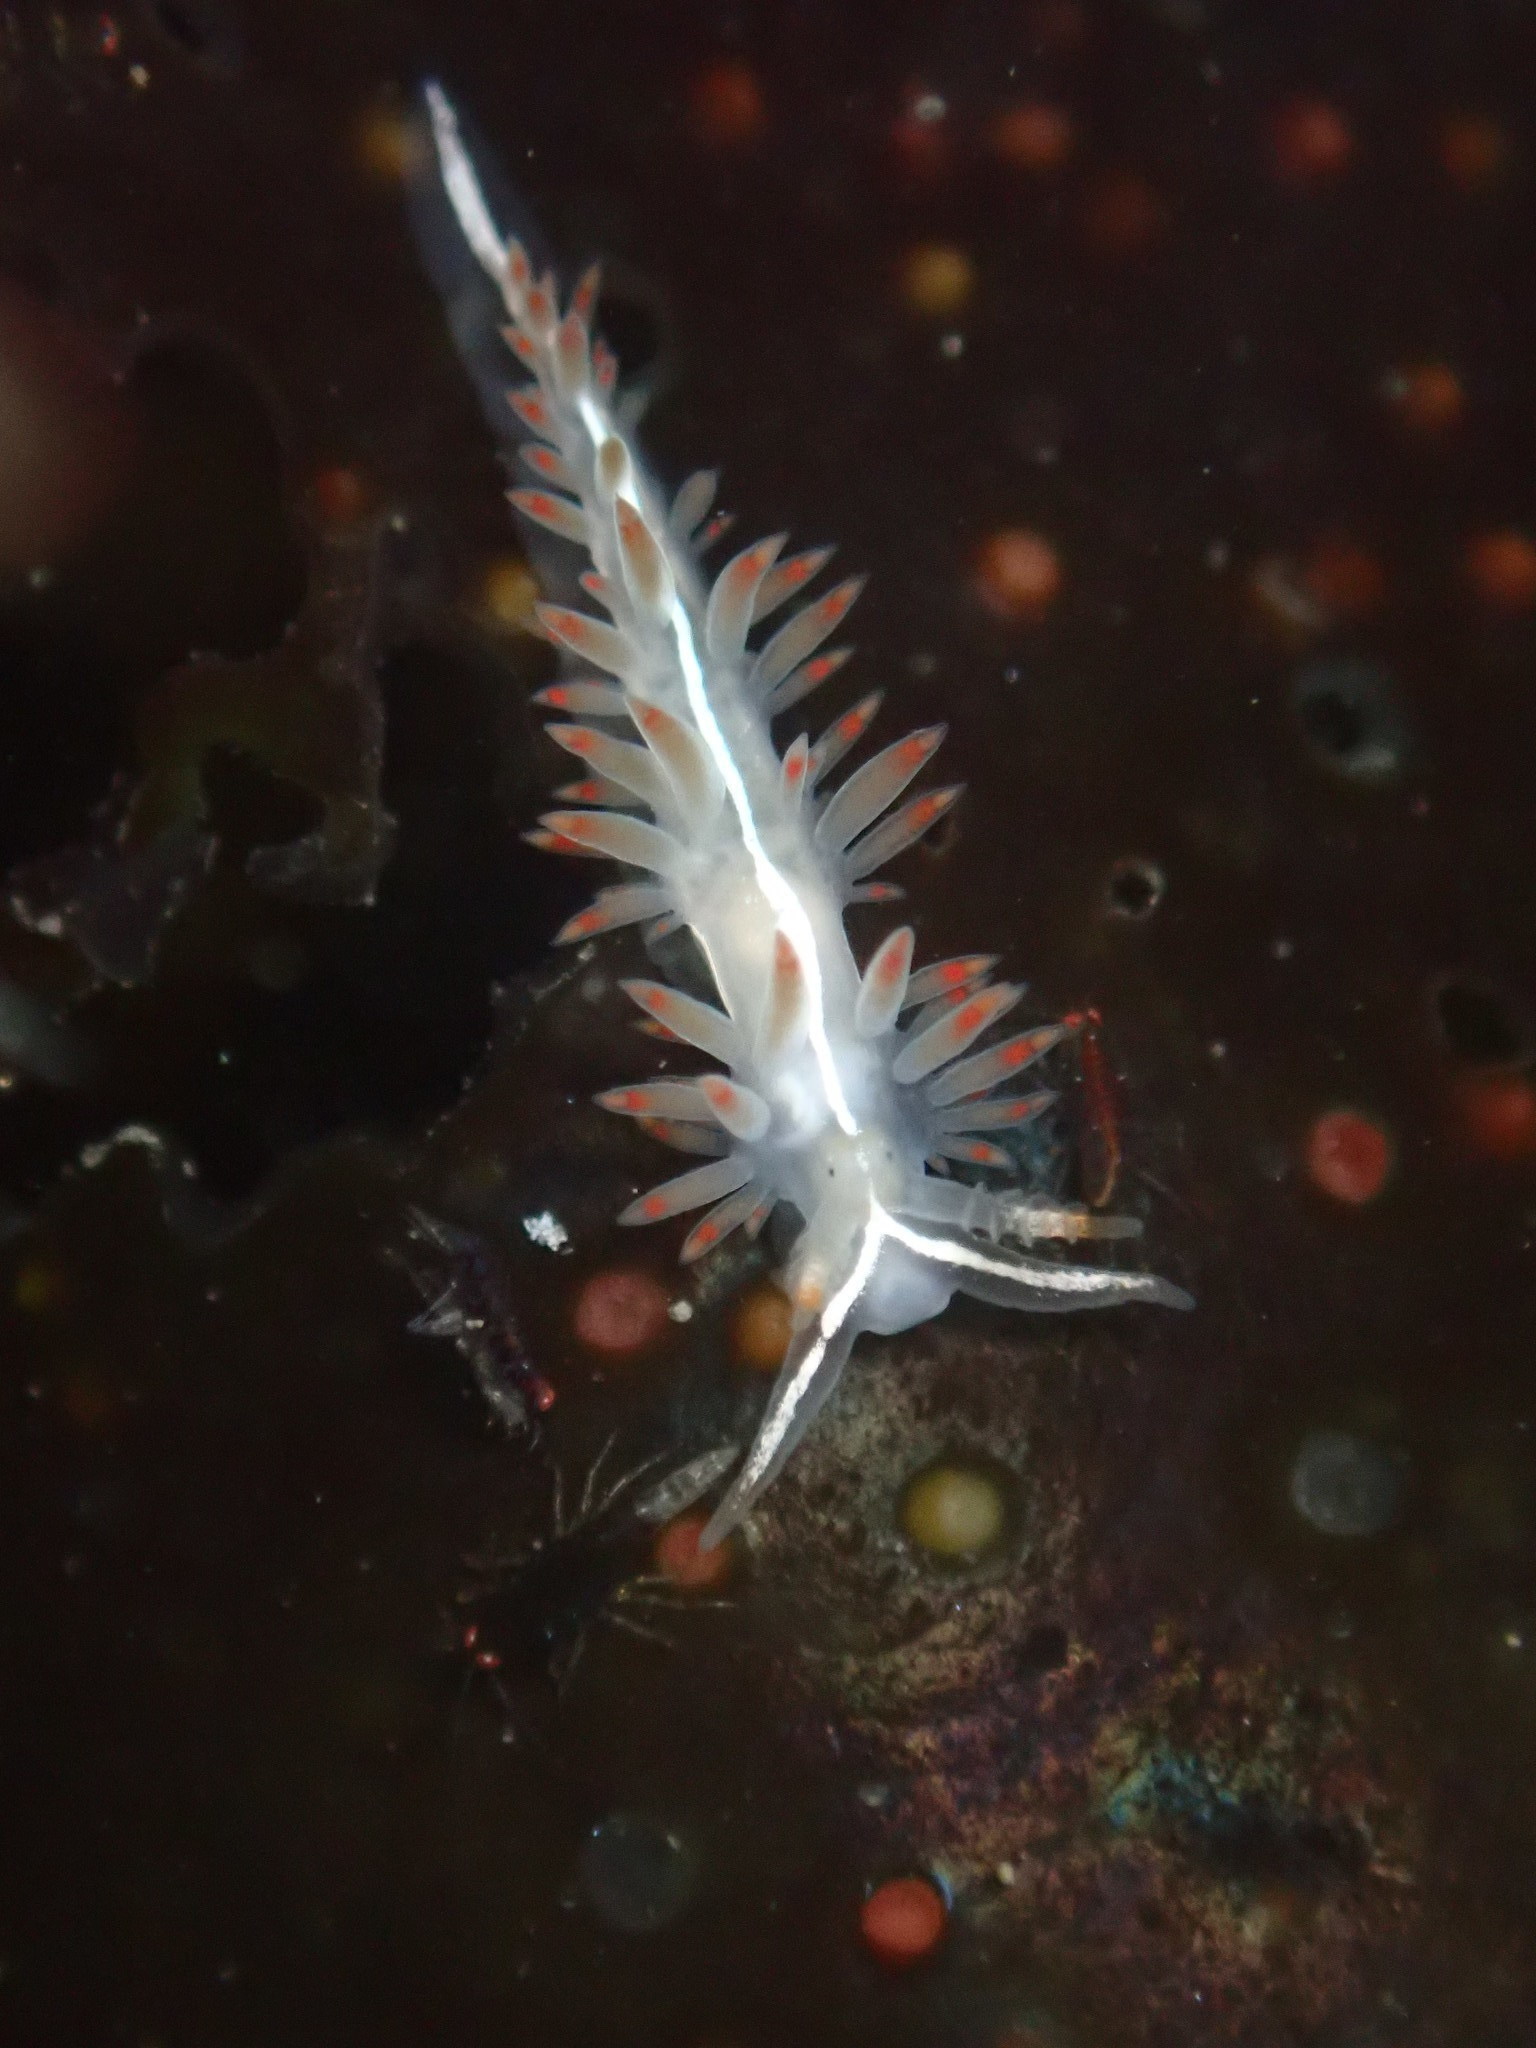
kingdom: Animalia
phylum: Mollusca
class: Gastropoda
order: Nudibranchia
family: Coryphellidae
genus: Coryphella
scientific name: Coryphella trilineata
